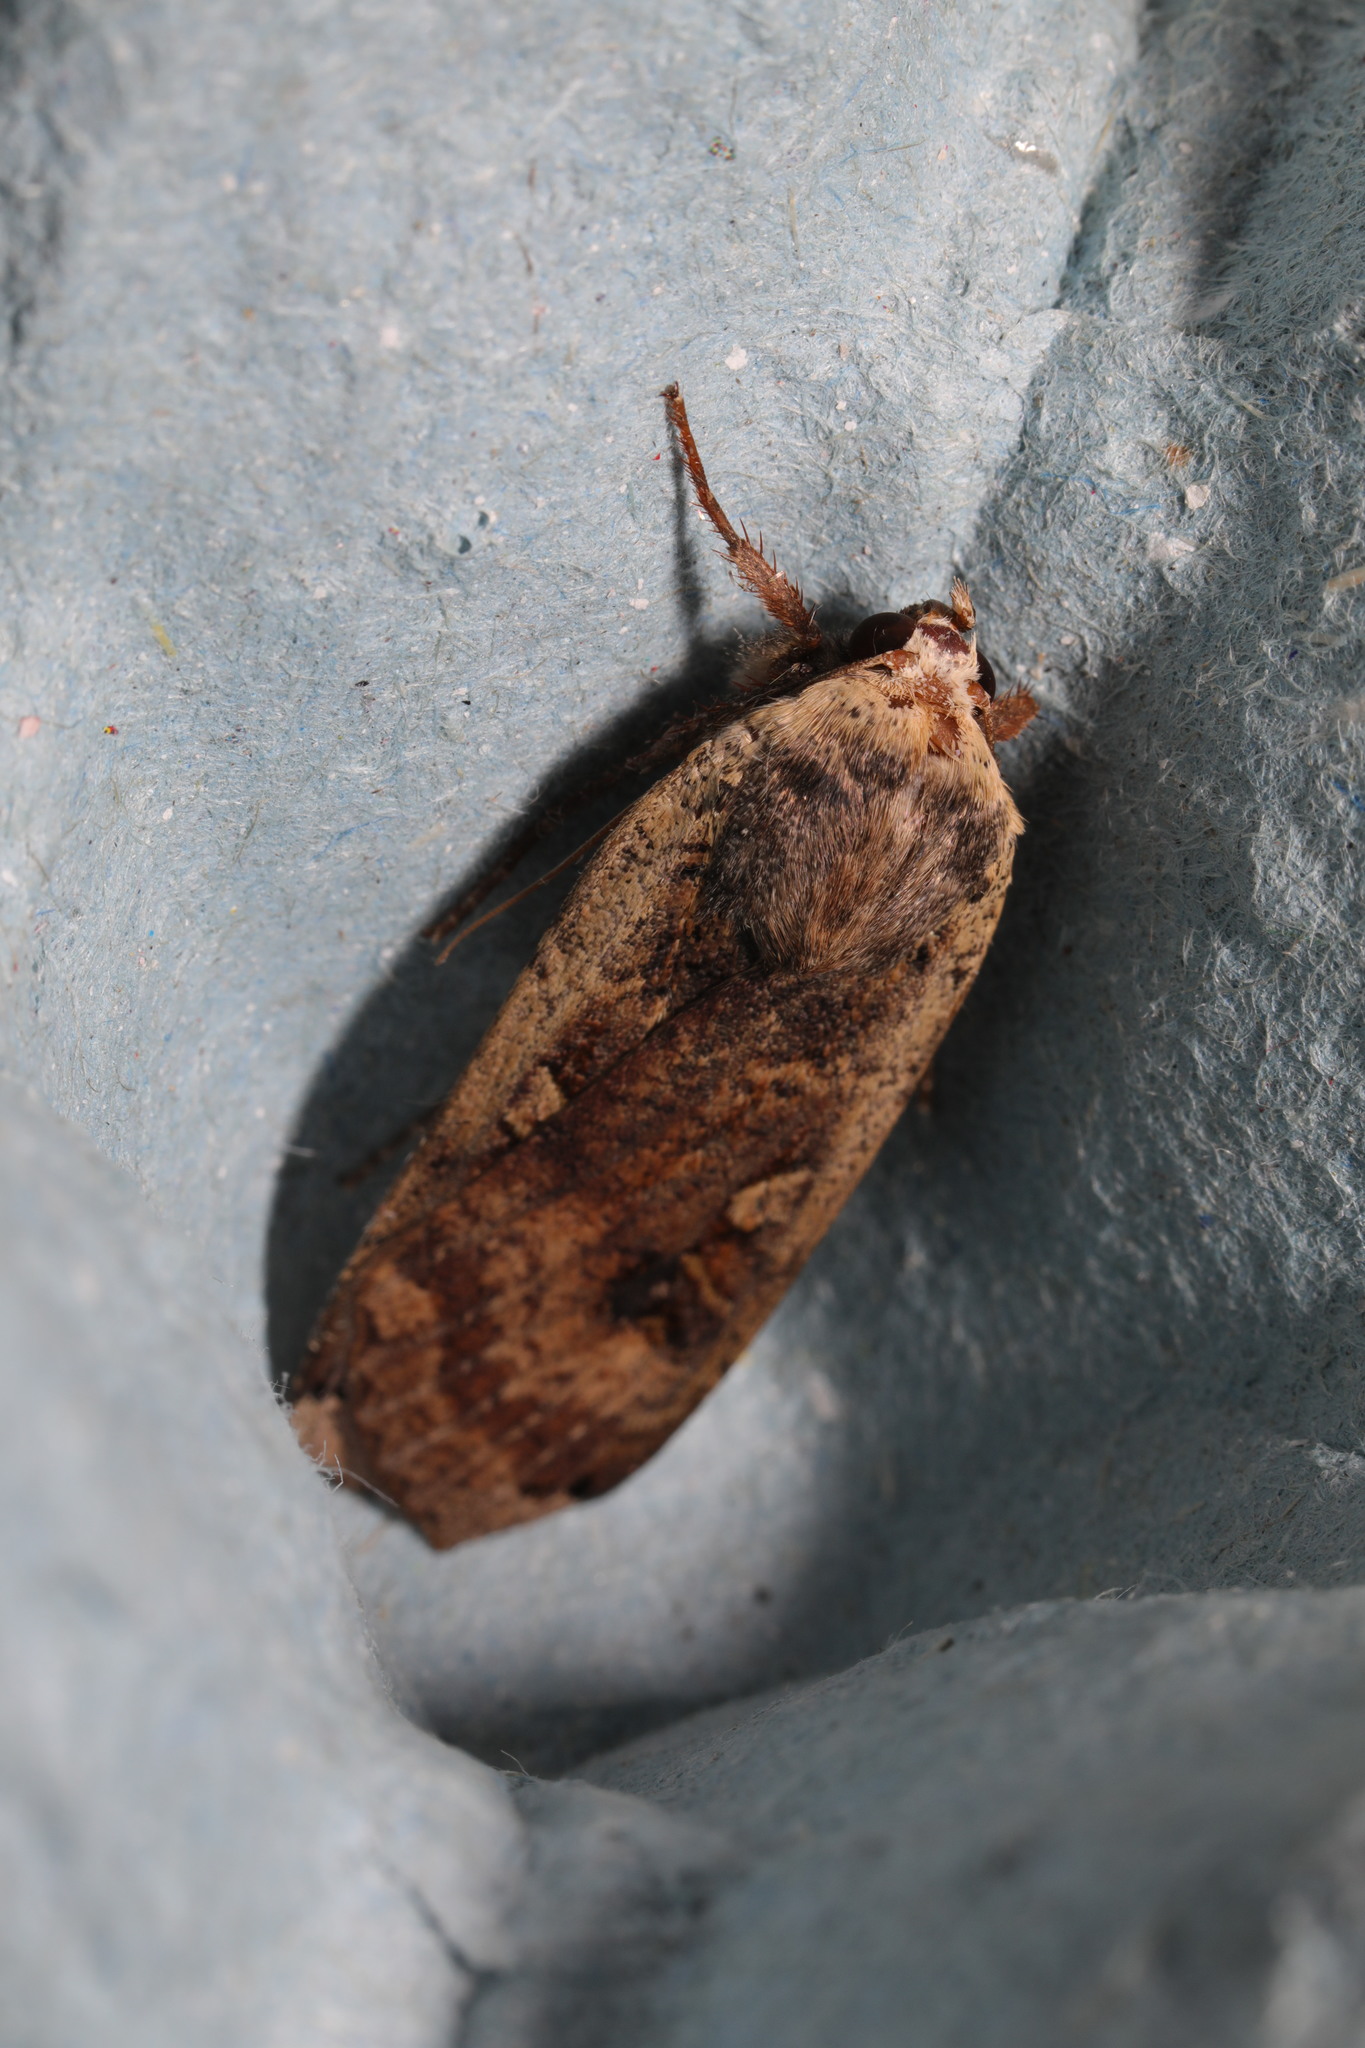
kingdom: Animalia
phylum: Arthropoda
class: Insecta
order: Lepidoptera
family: Noctuidae
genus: Noctua
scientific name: Noctua pronuba
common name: Large yellow underwing
